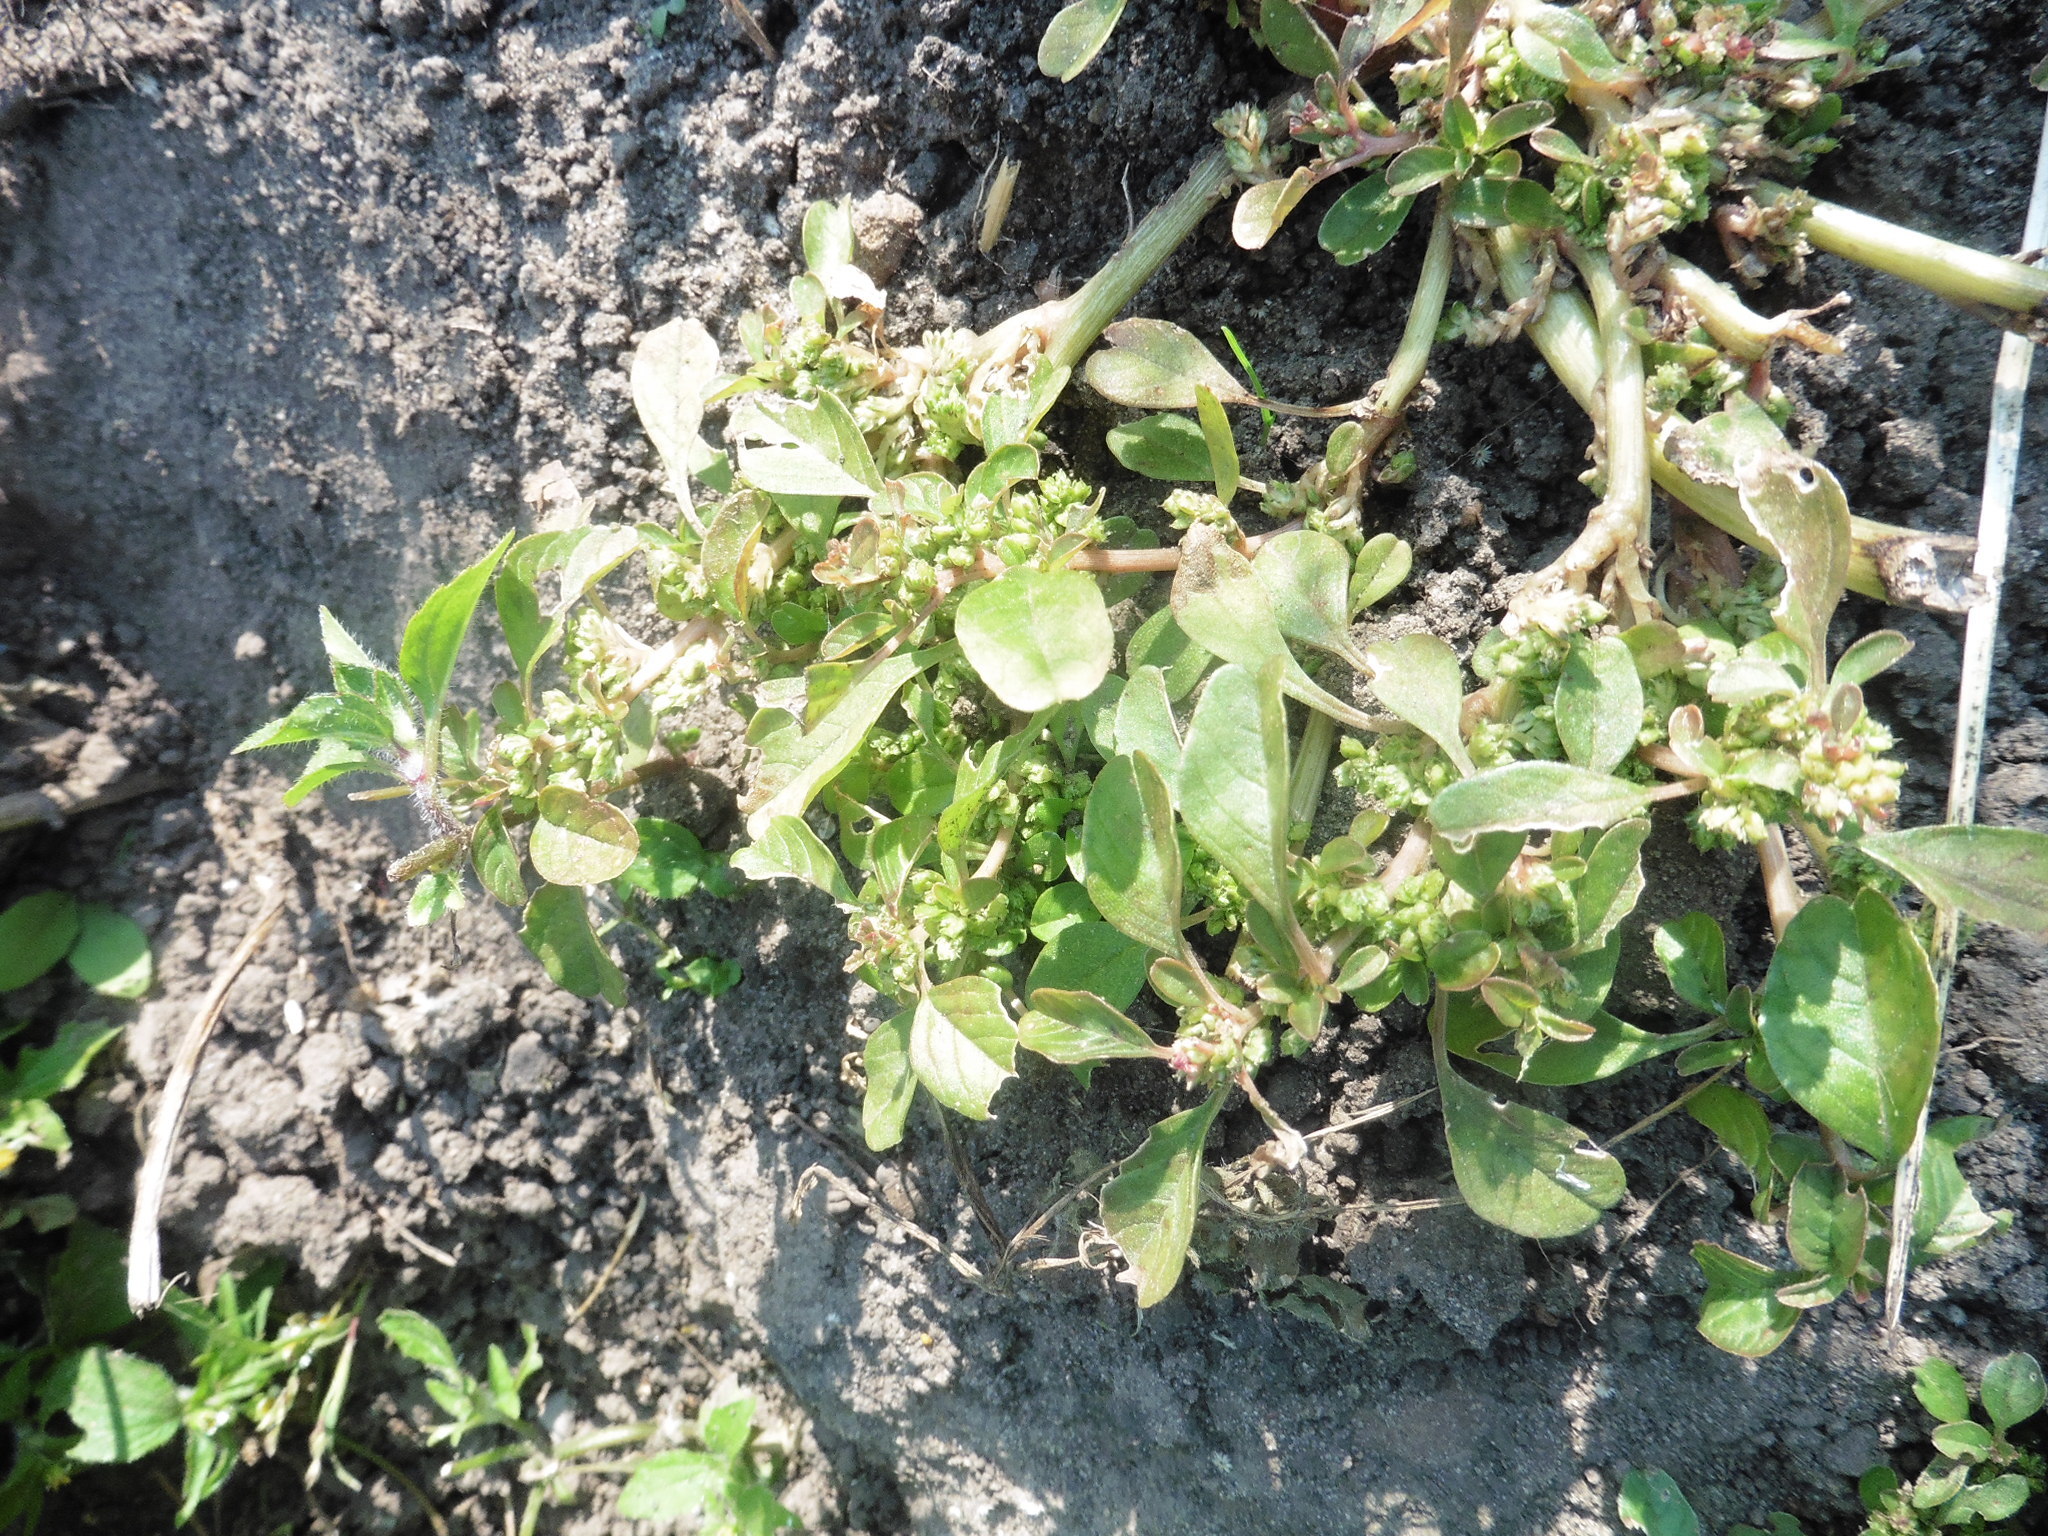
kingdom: Plantae
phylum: Tracheophyta
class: Magnoliopsida
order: Caryophyllales
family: Amaranthaceae
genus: Amaranthus
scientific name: Amaranthus blitum
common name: Purple amaranth
